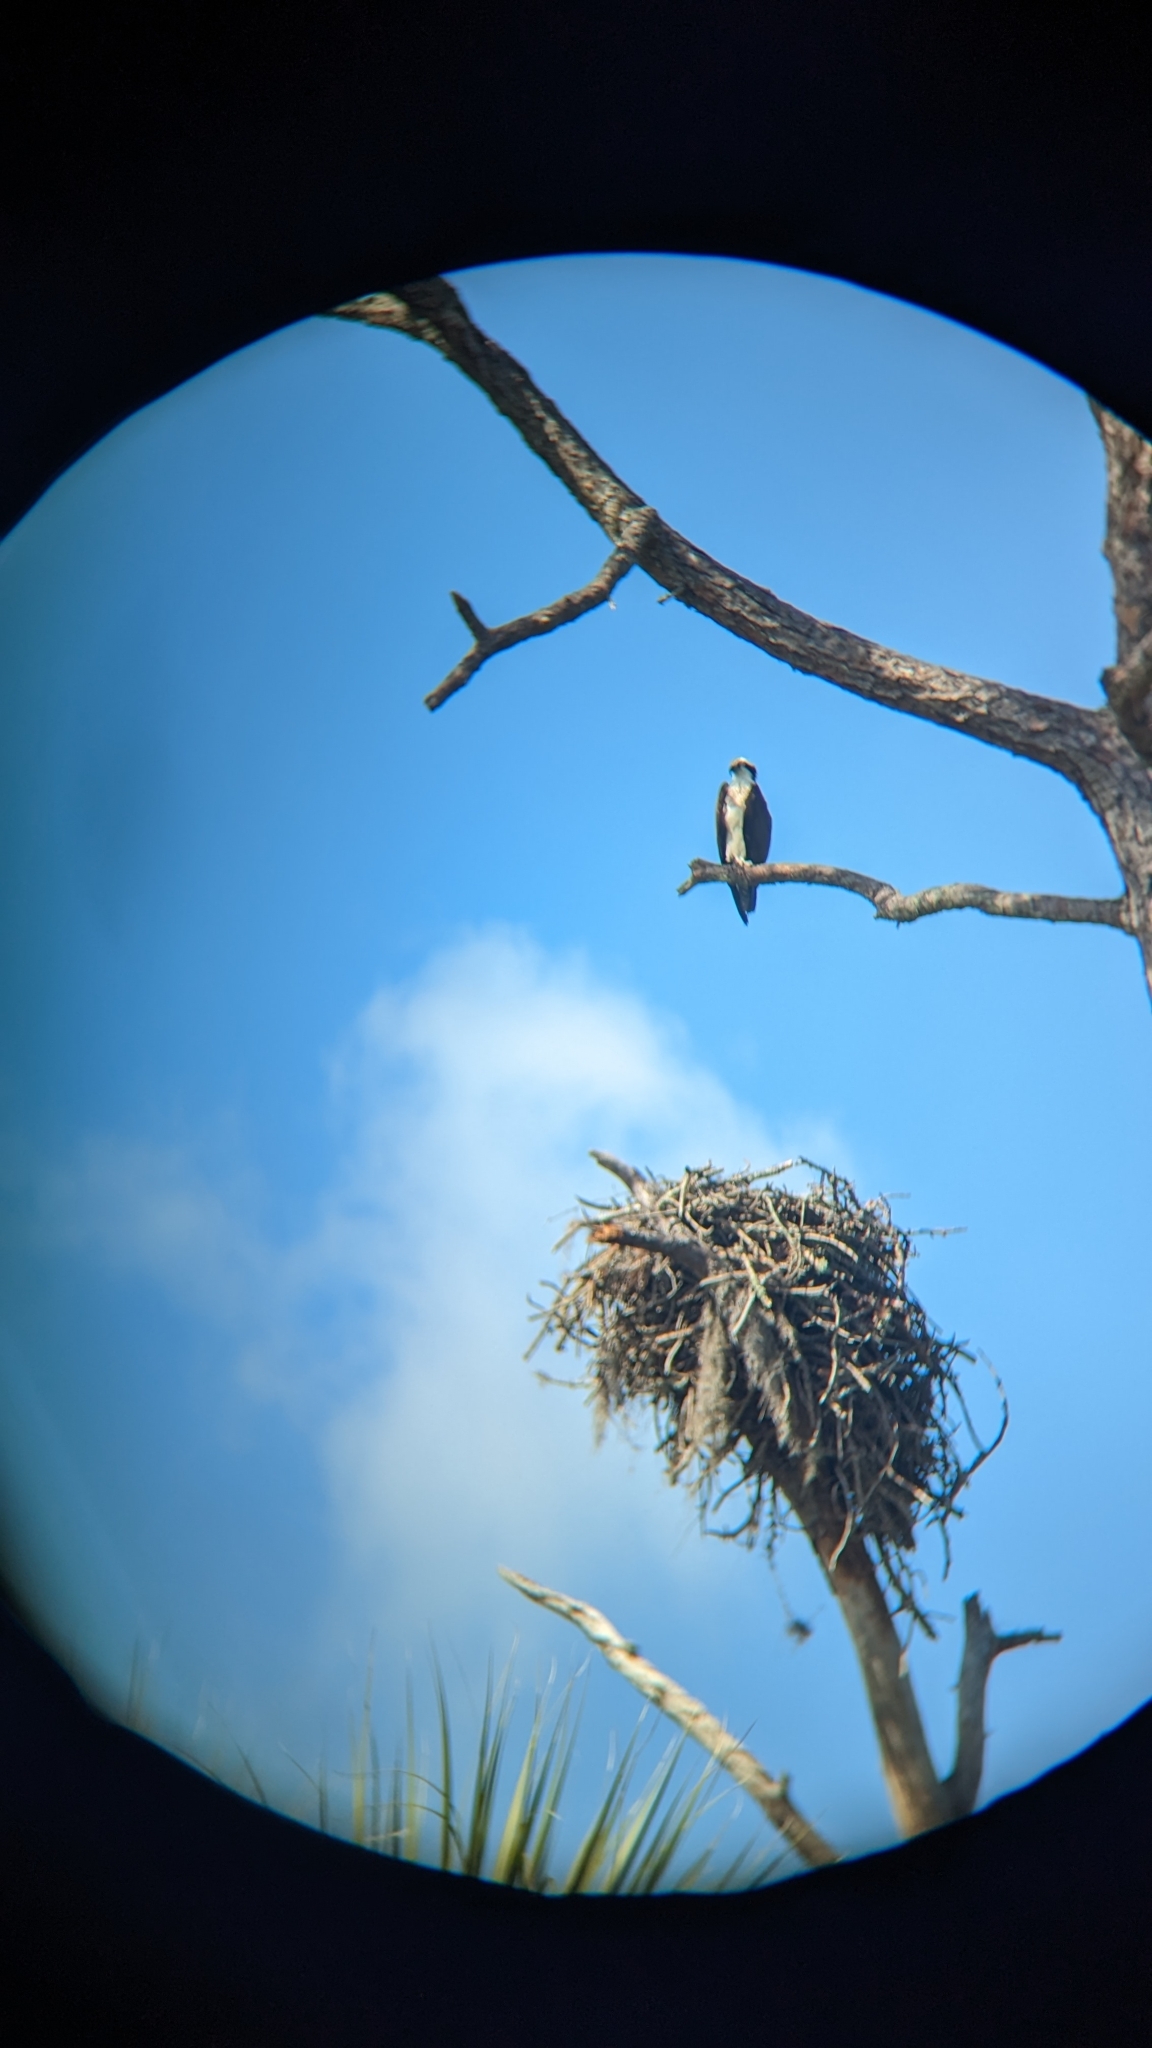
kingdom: Animalia
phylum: Chordata
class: Aves
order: Accipitriformes
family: Pandionidae
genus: Pandion
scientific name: Pandion haliaetus
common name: Osprey
